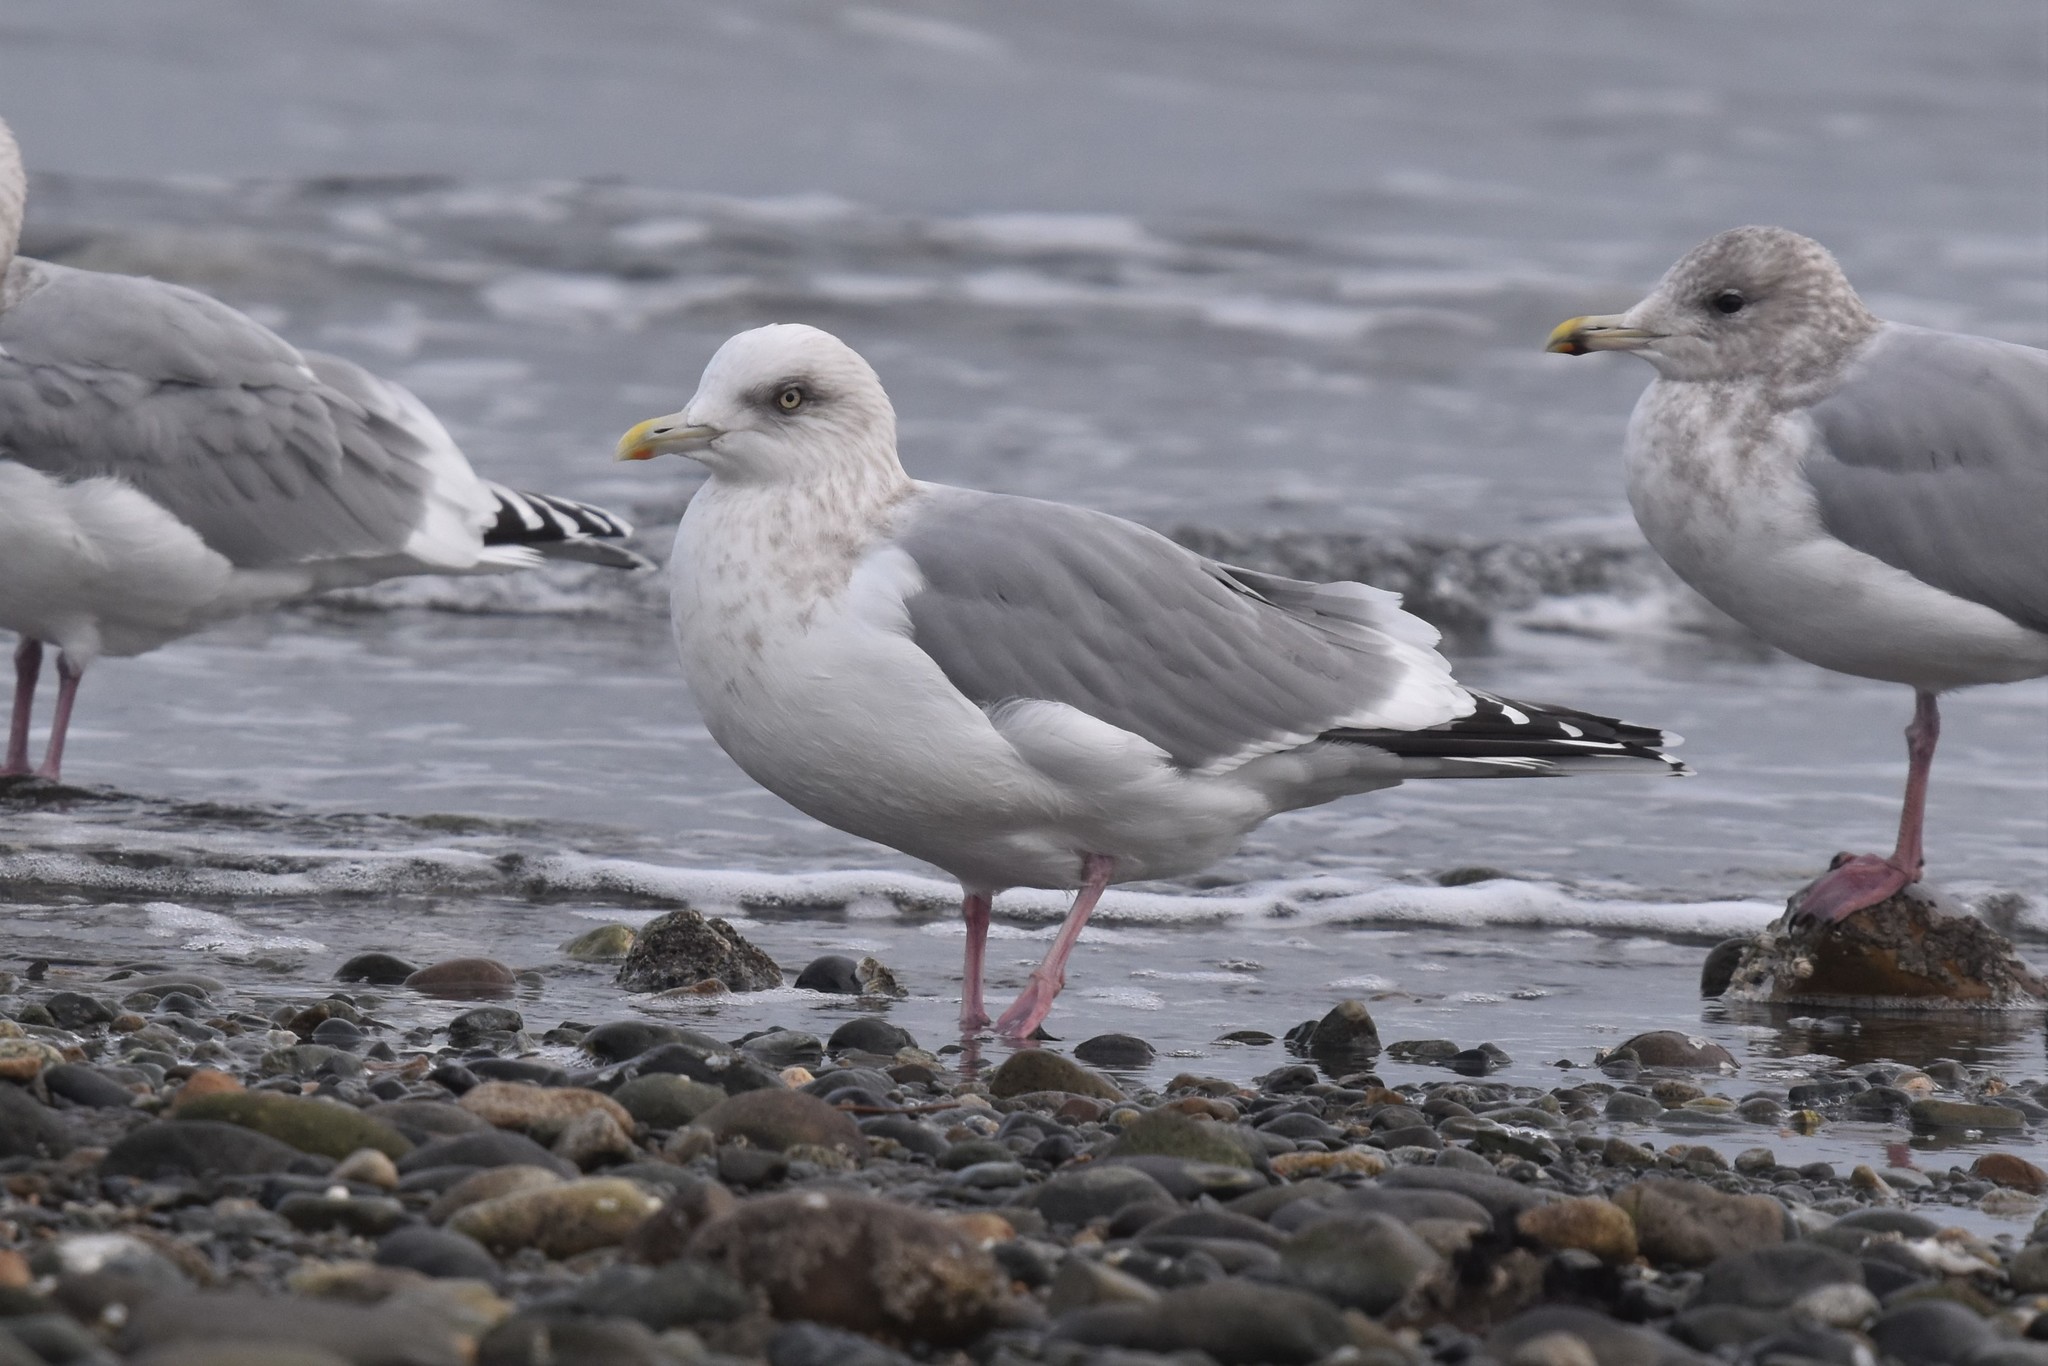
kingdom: Animalia
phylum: Chordata
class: Aves
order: Charadriiformes
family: Laridae
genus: Larus
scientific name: Larus glaucoides
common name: Iceland gull
